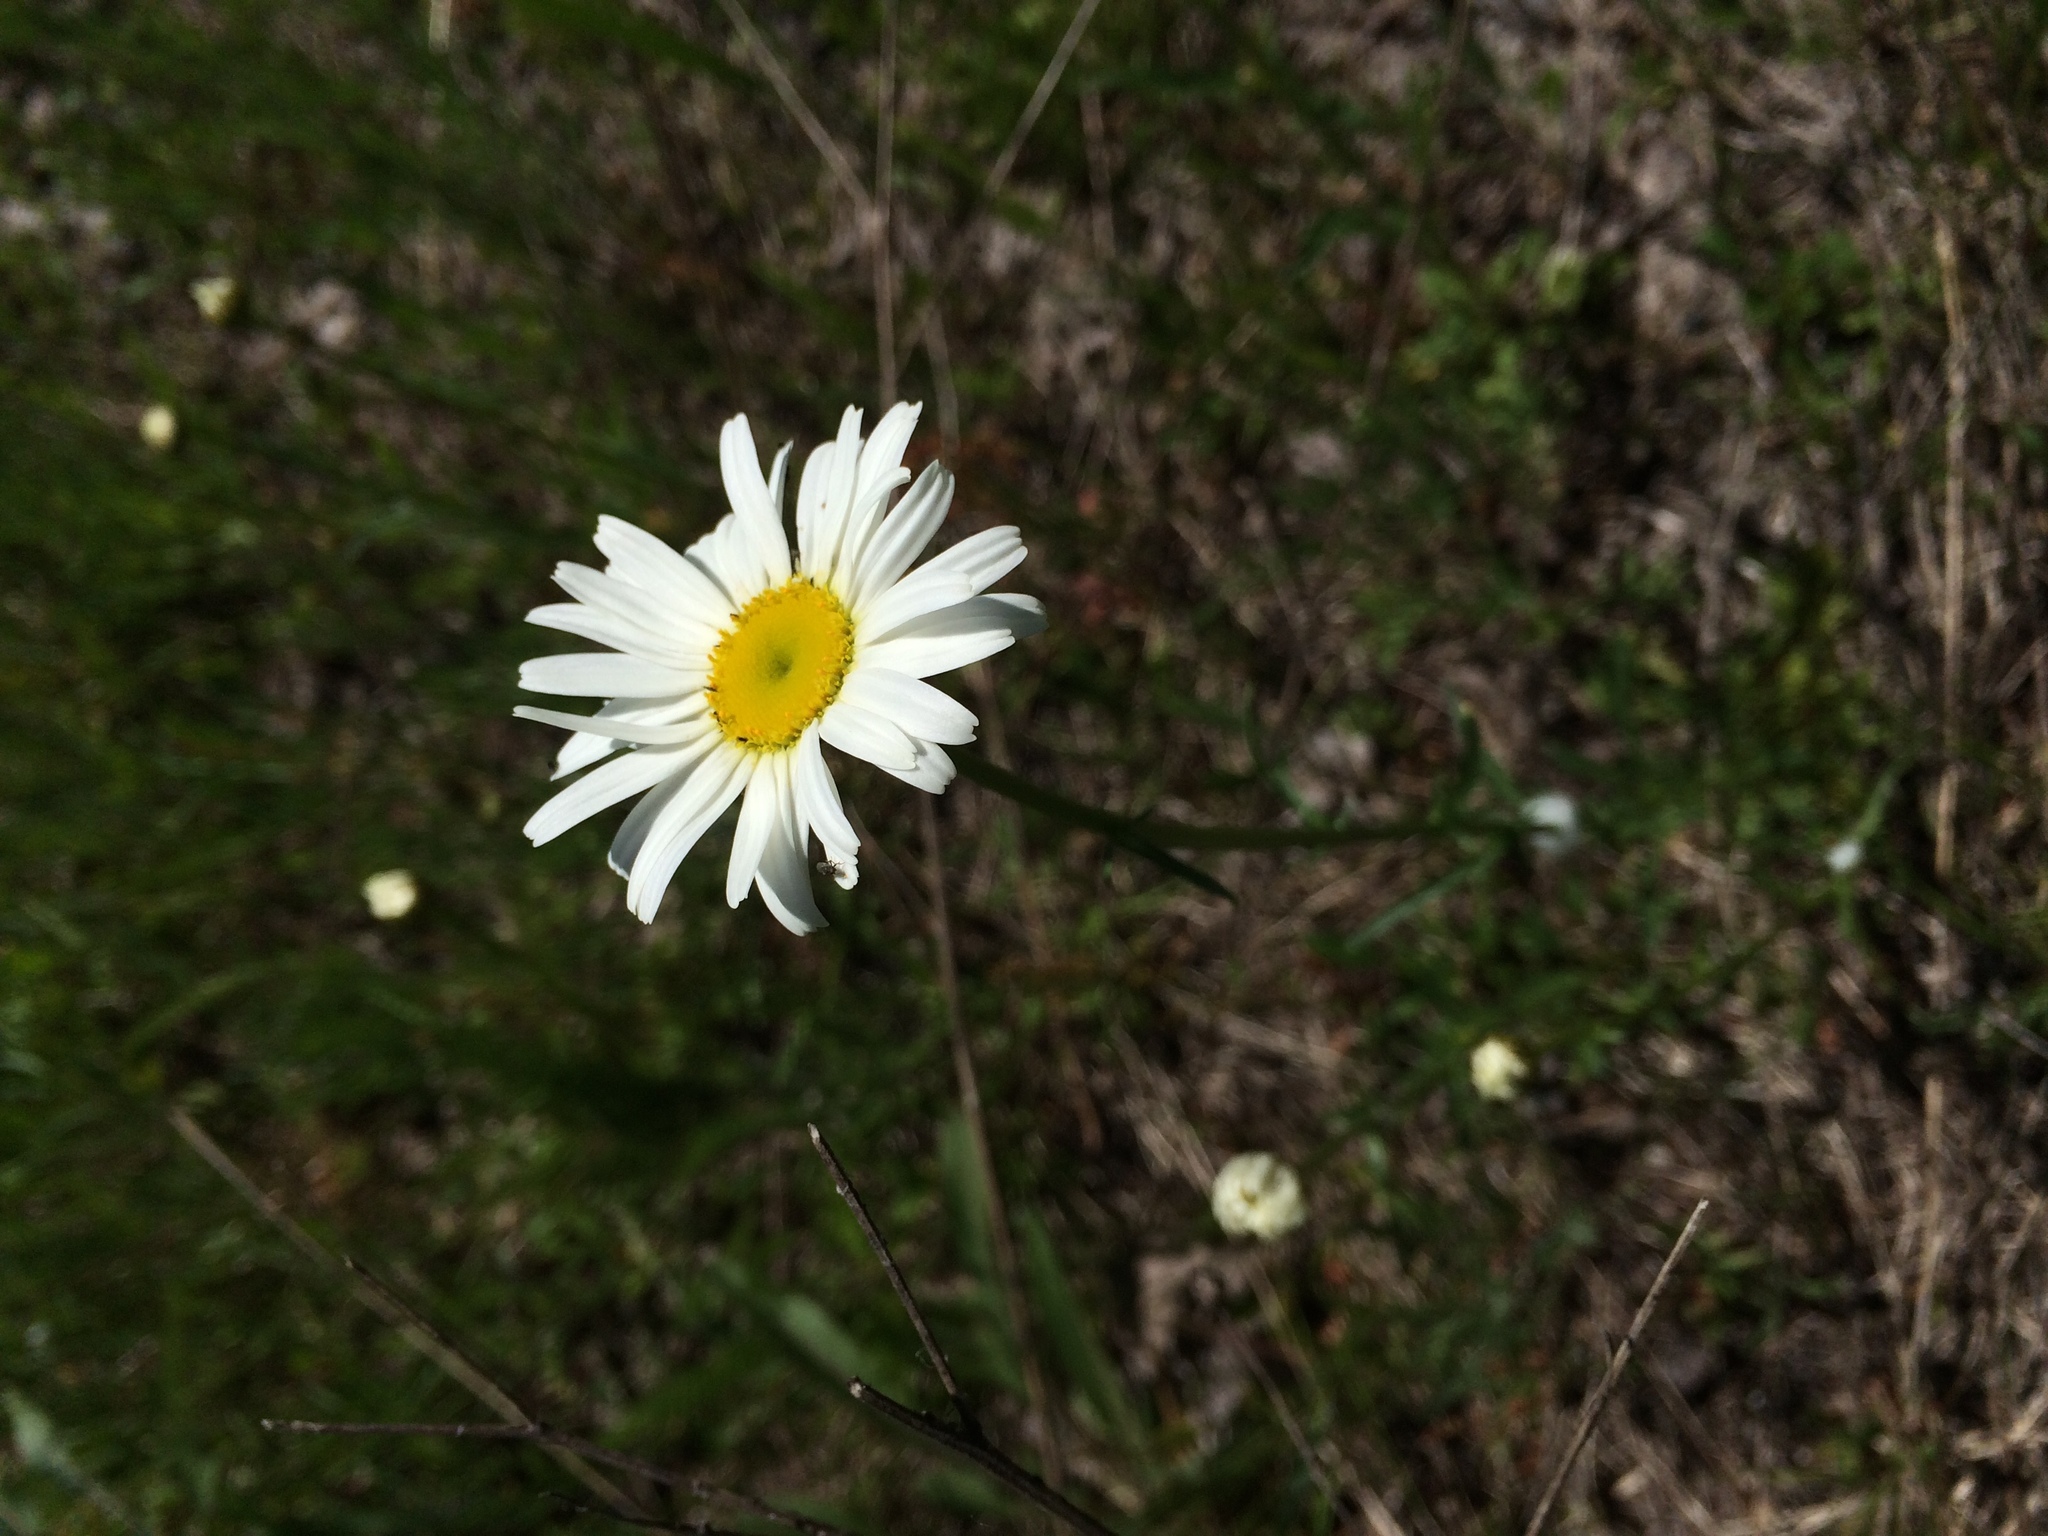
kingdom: Plantae
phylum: Tracheophyta
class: Magnoliopsida
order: Asterales
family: Asteraceae
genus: Leucanthemum
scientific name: Leucanthemum vulgare
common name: Oxeye daisy
